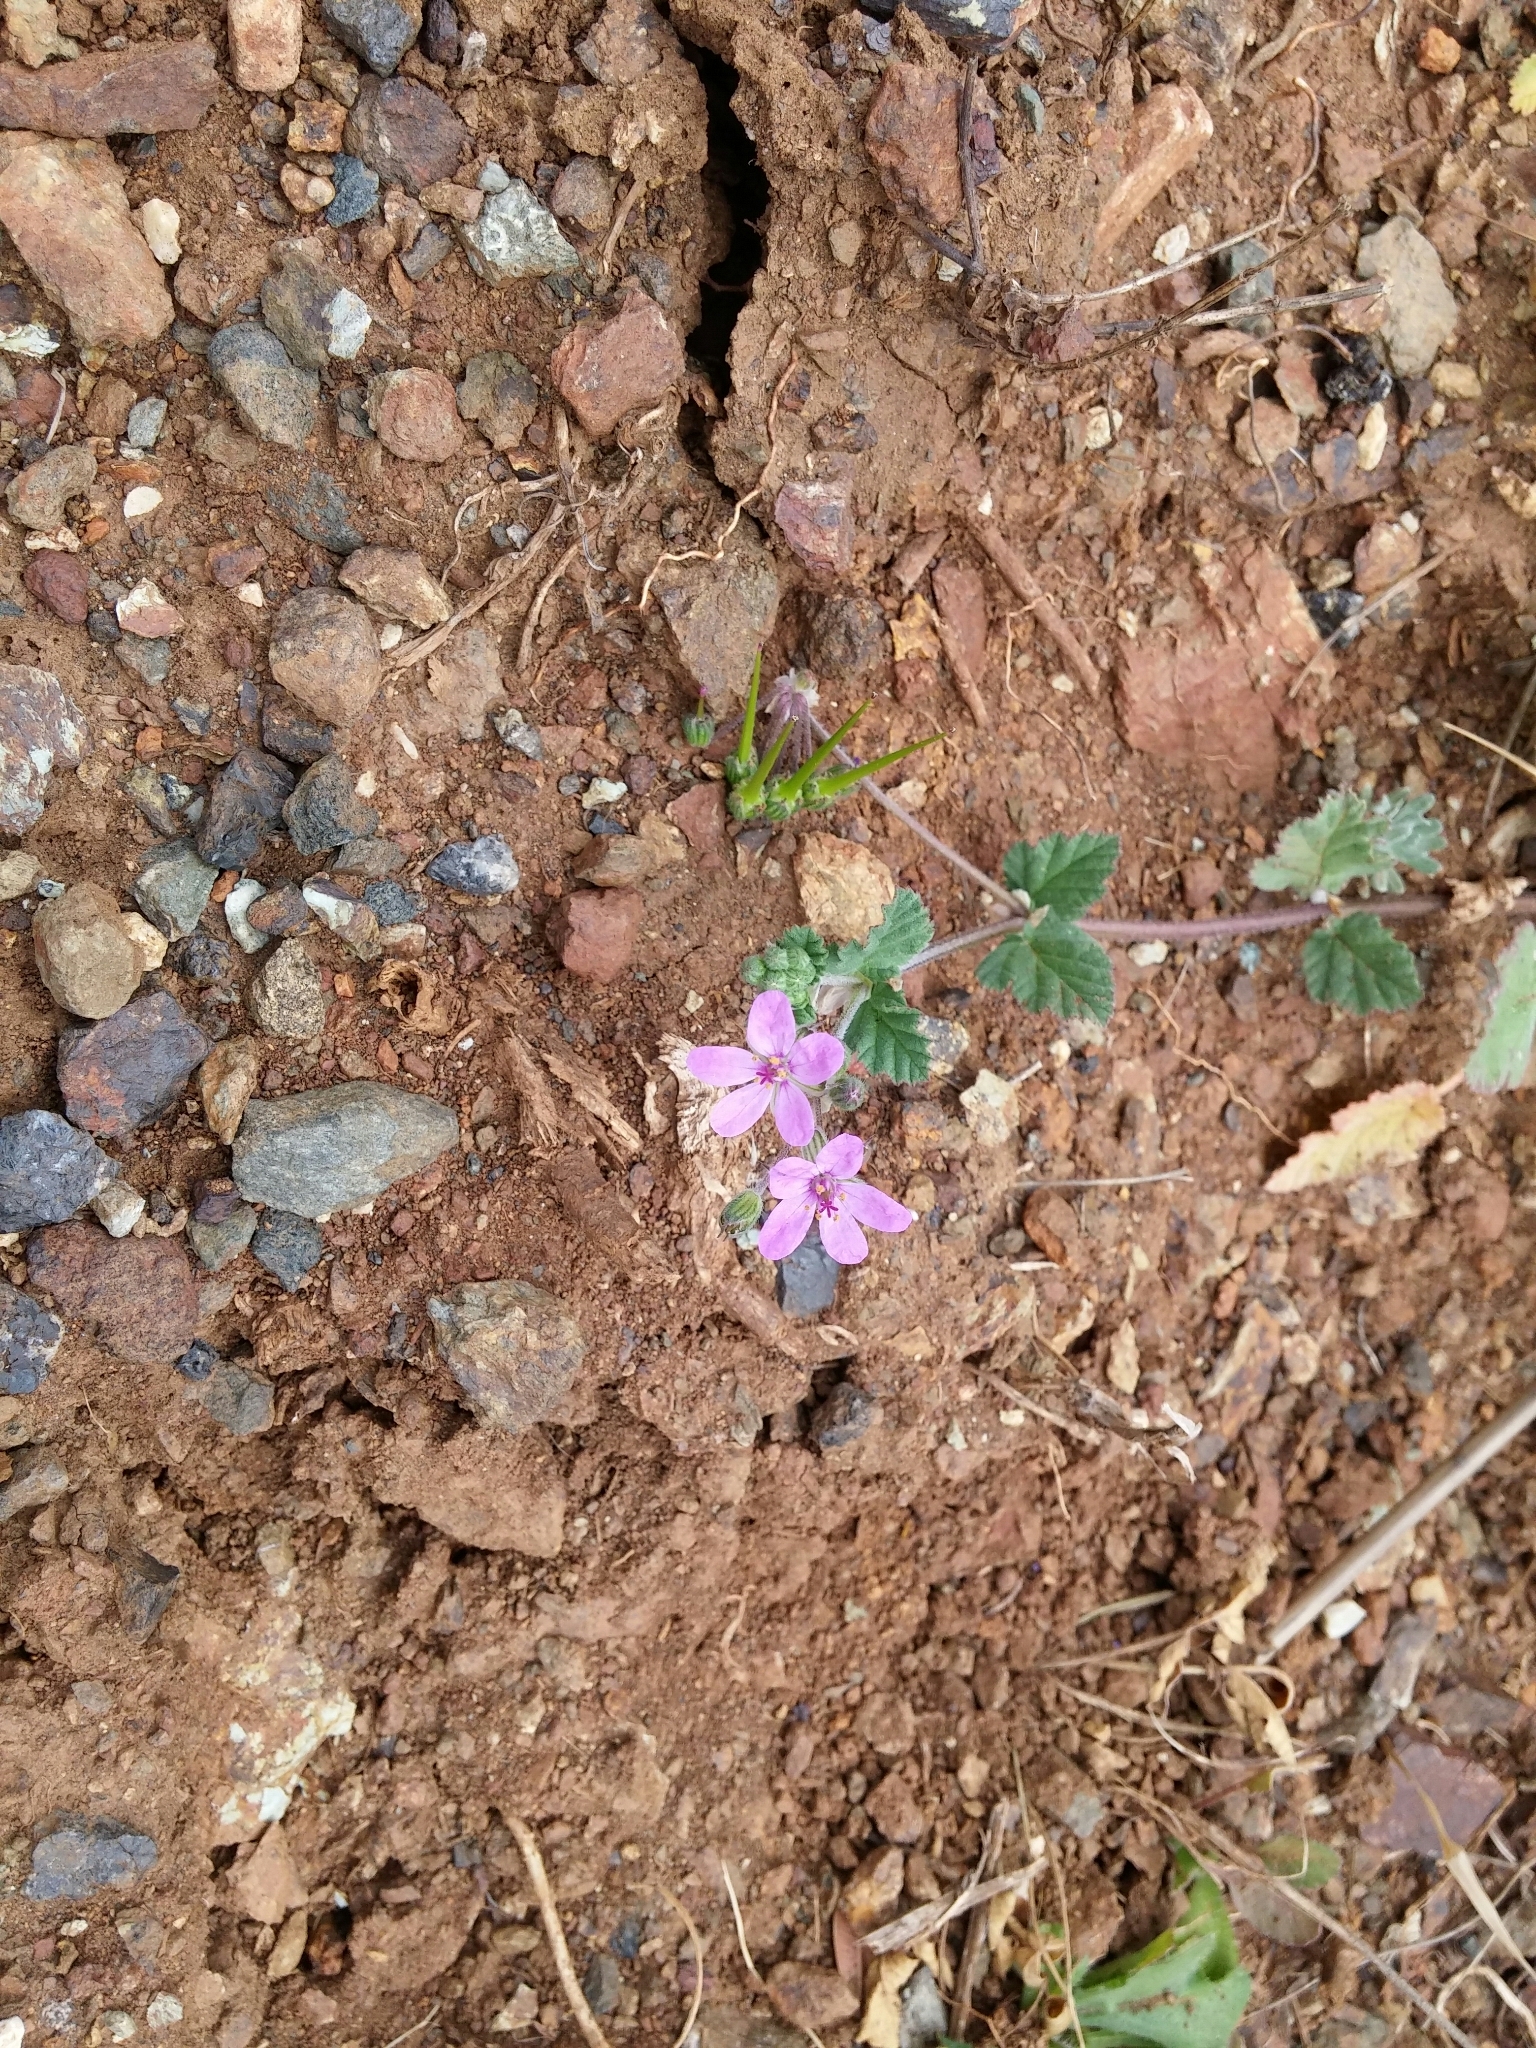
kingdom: Plantae
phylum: Tracheophyta
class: Magnoliopsida
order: Geraniales
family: Geraniaceae
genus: Erodium
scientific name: Erodium malacoides
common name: Soft stork's-bill
